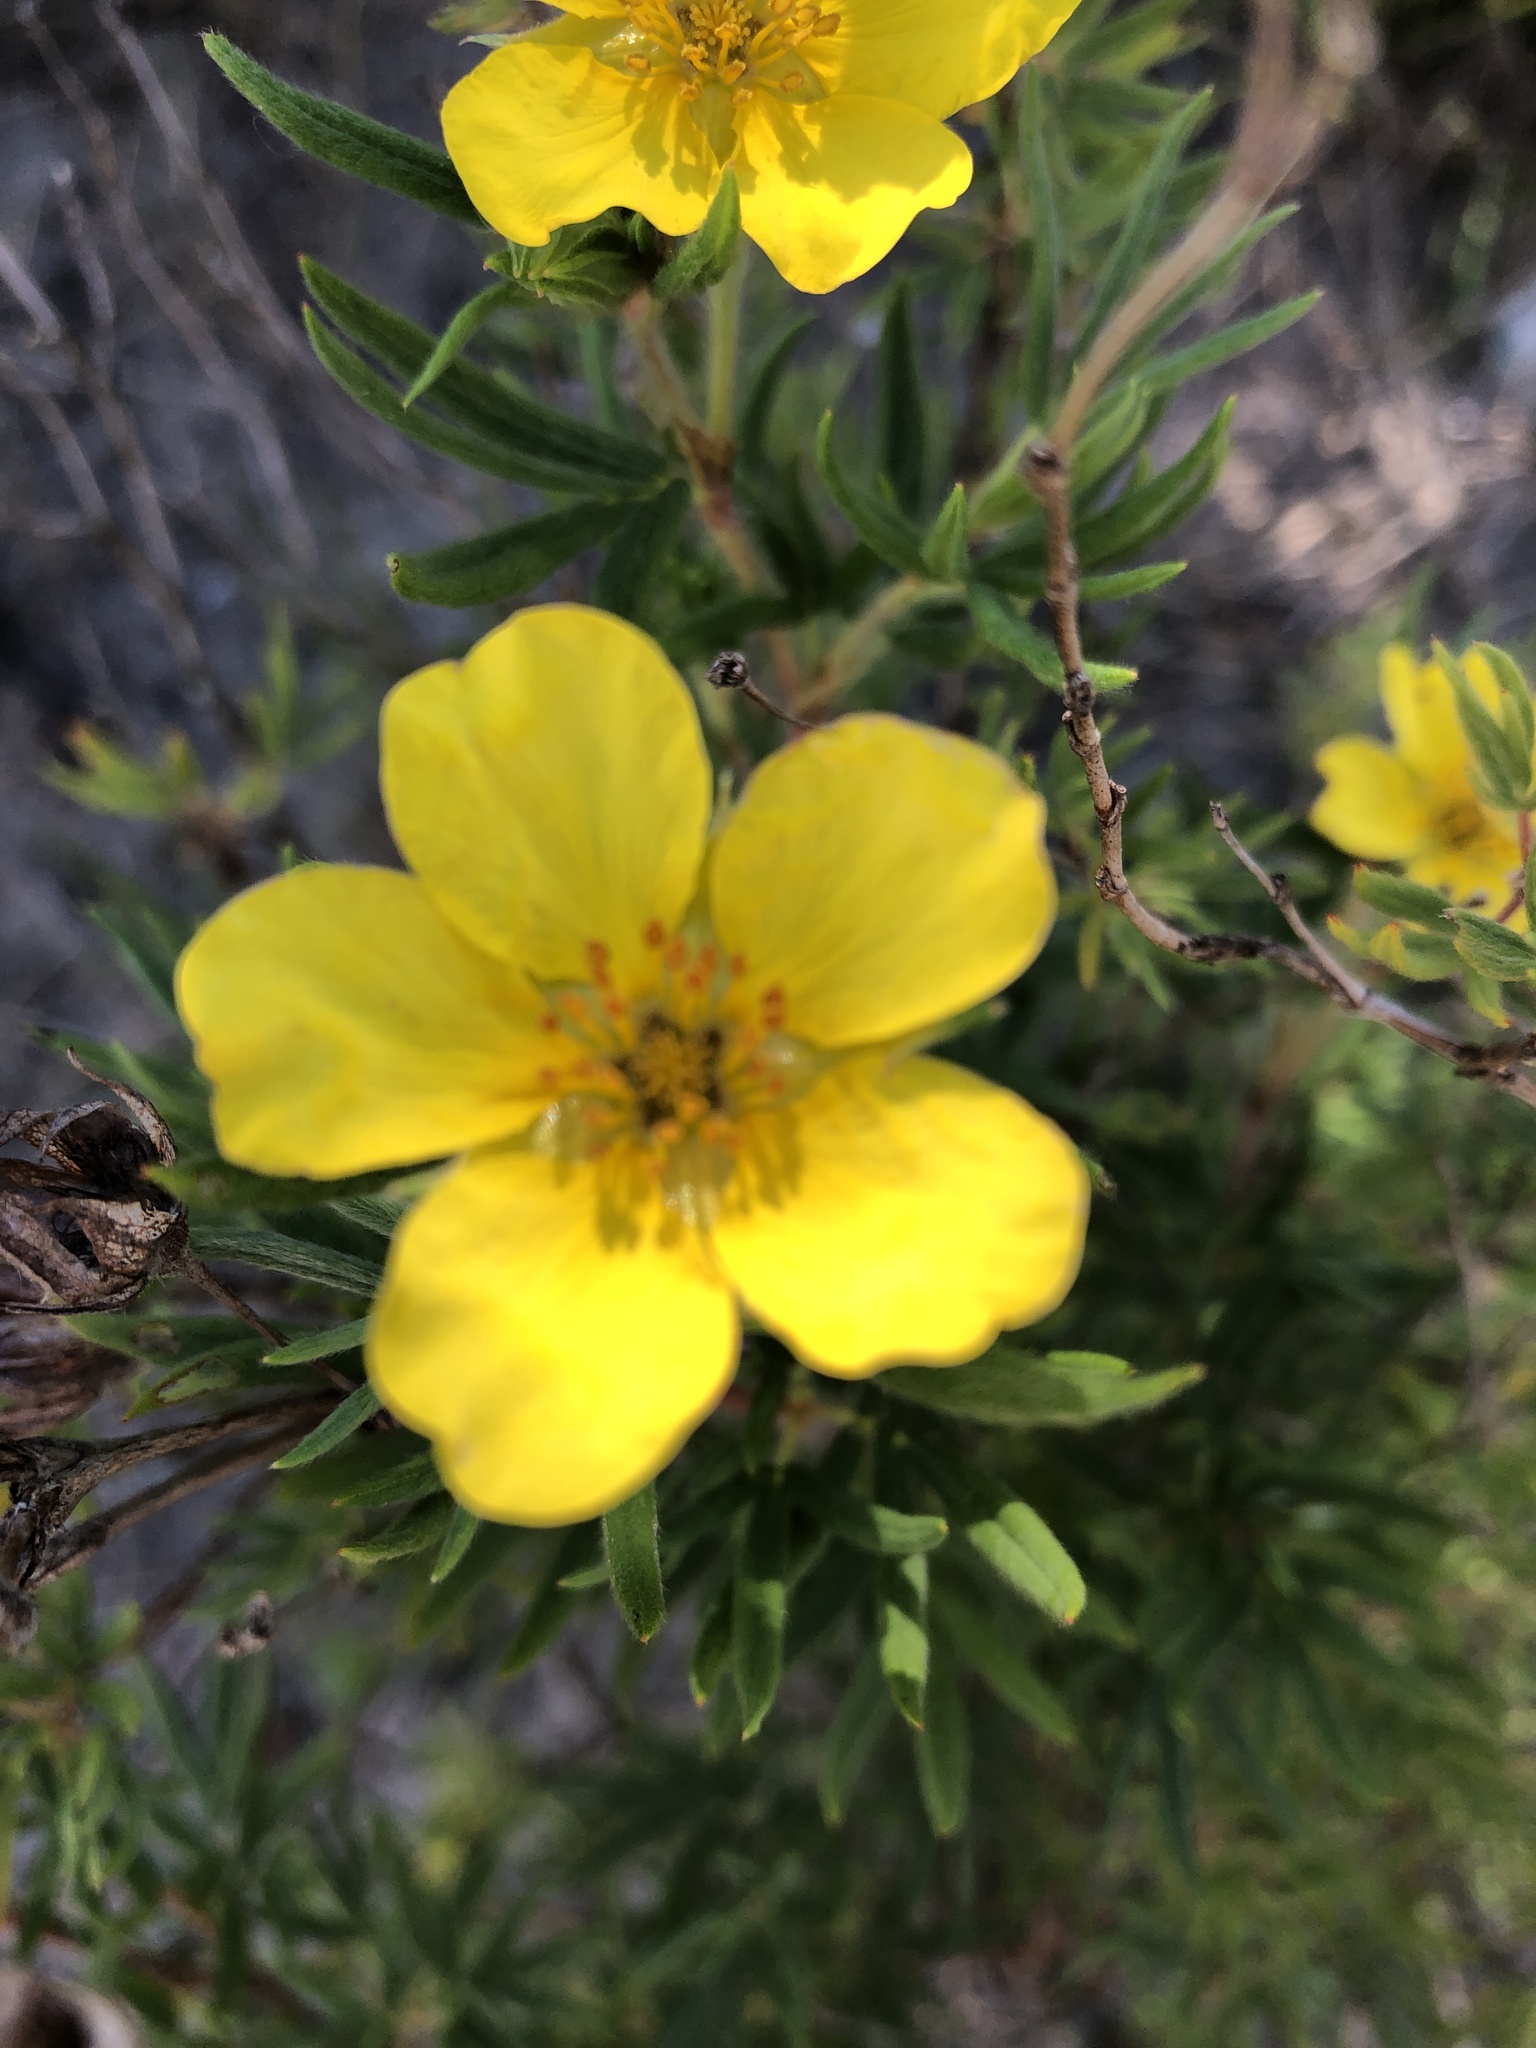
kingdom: Plantae
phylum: Tracheophyta
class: Magnoliopsida
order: Rosales
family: Rosaceae
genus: Dasiphora
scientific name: Dasiphora fruticosa
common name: Shrubby cinquefoil
